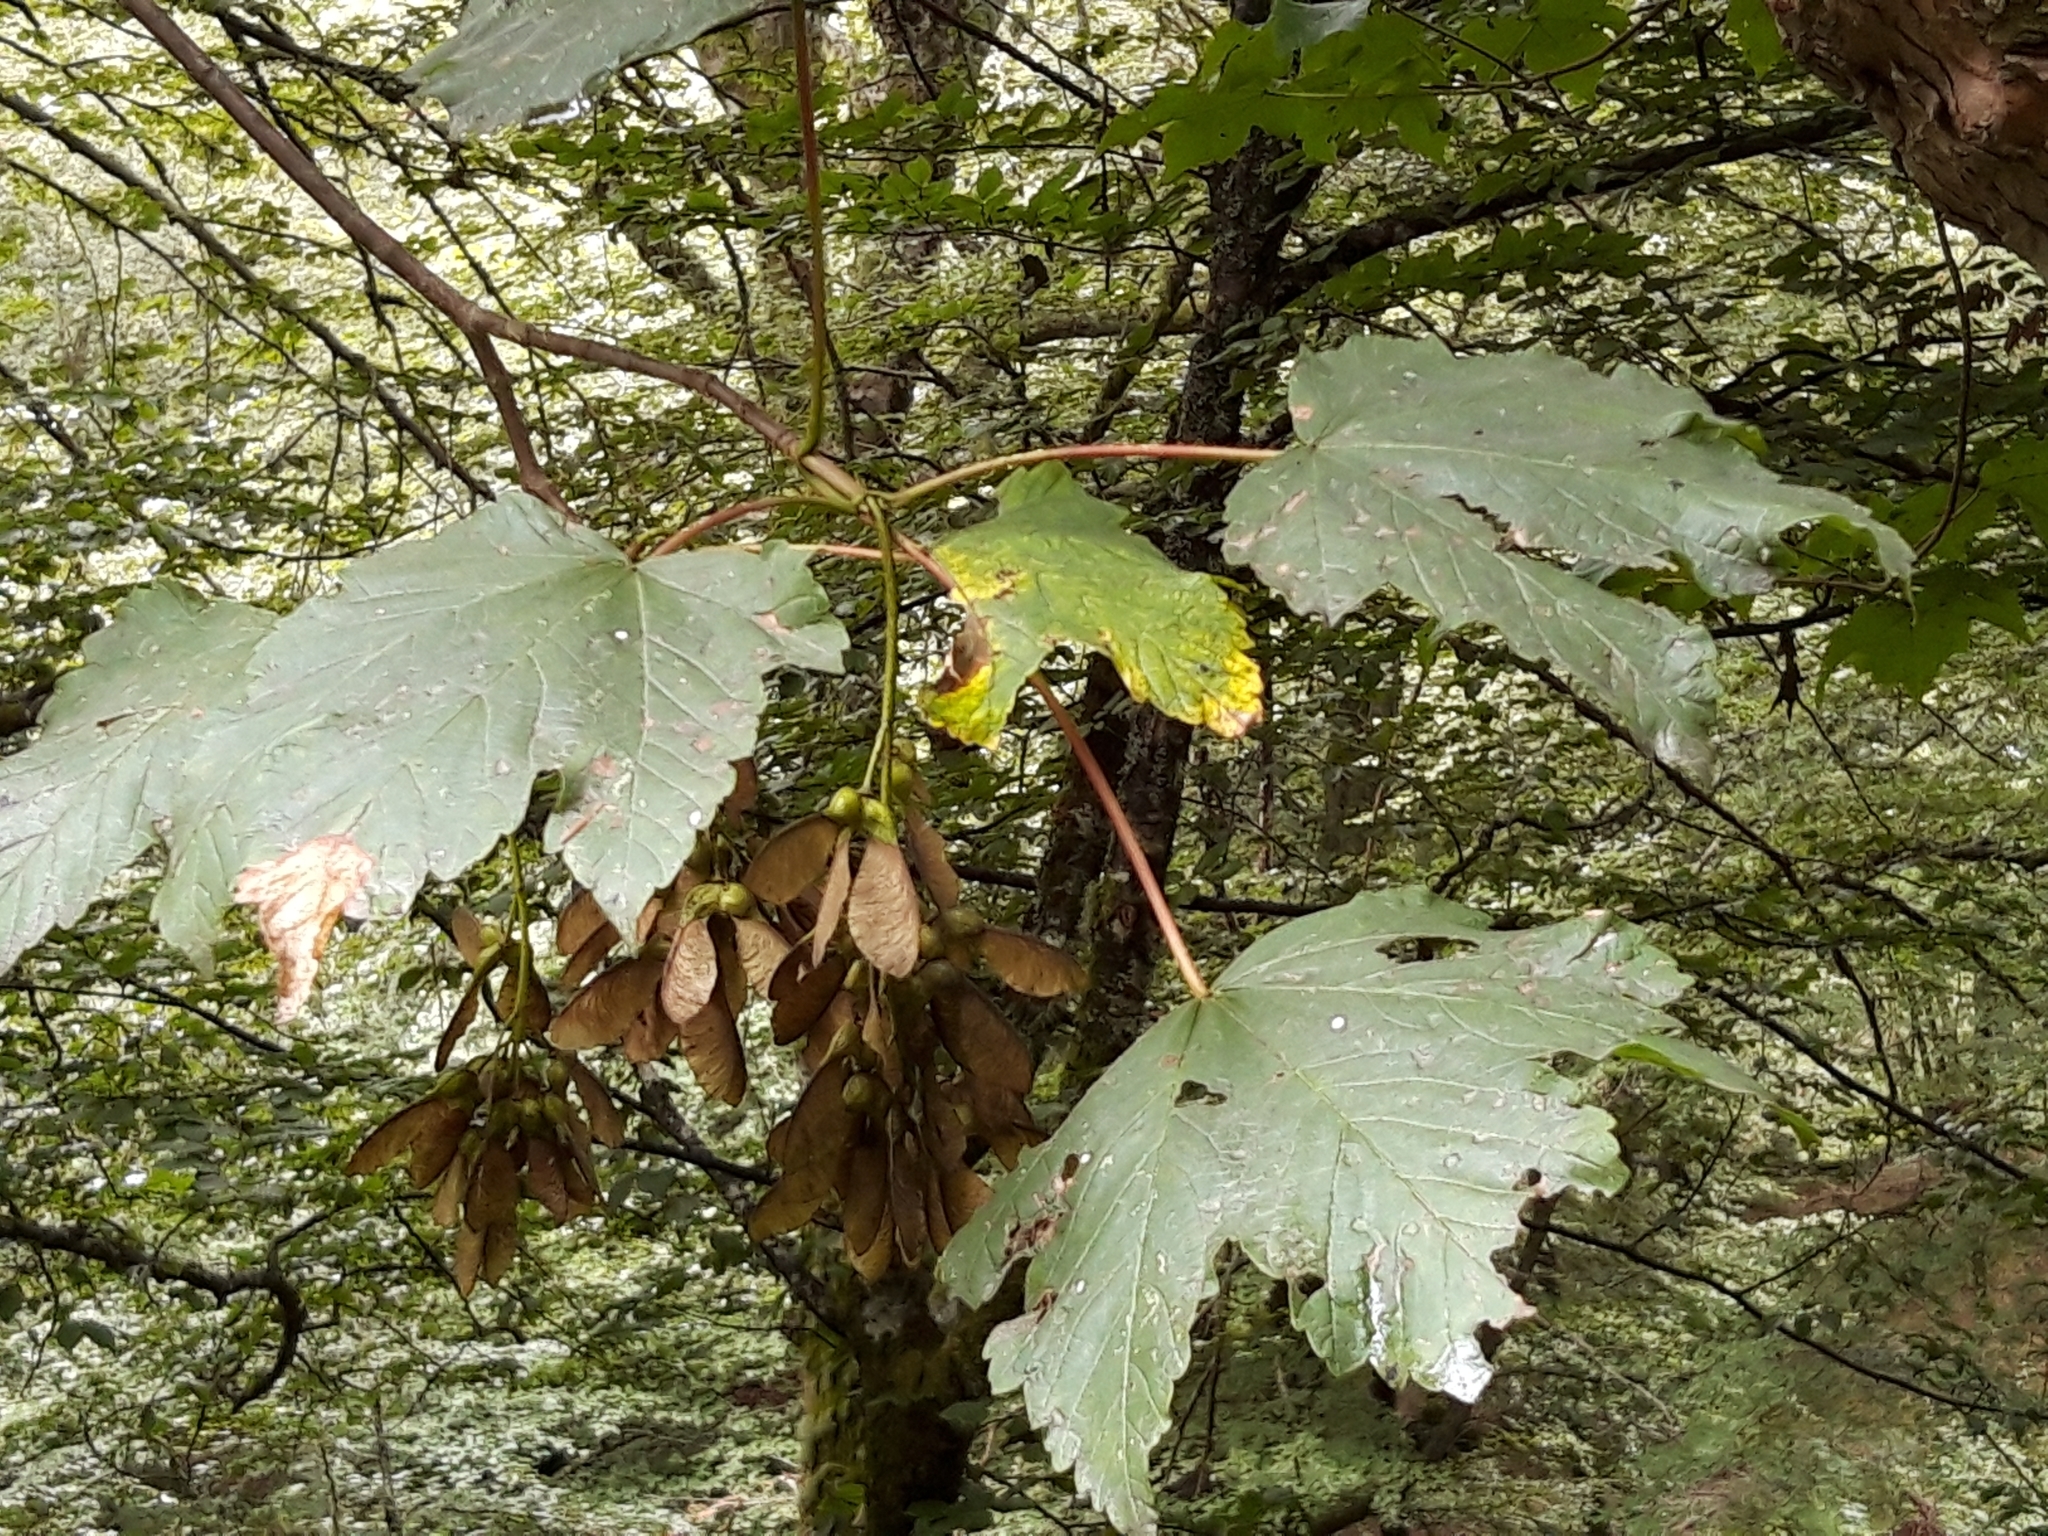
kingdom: Plantae
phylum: Tracheophyta
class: Magnoliopsida
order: Sapindales
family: Sapindaceae
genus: Acer
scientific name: Acer pseudoplatanus
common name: Sycamore
